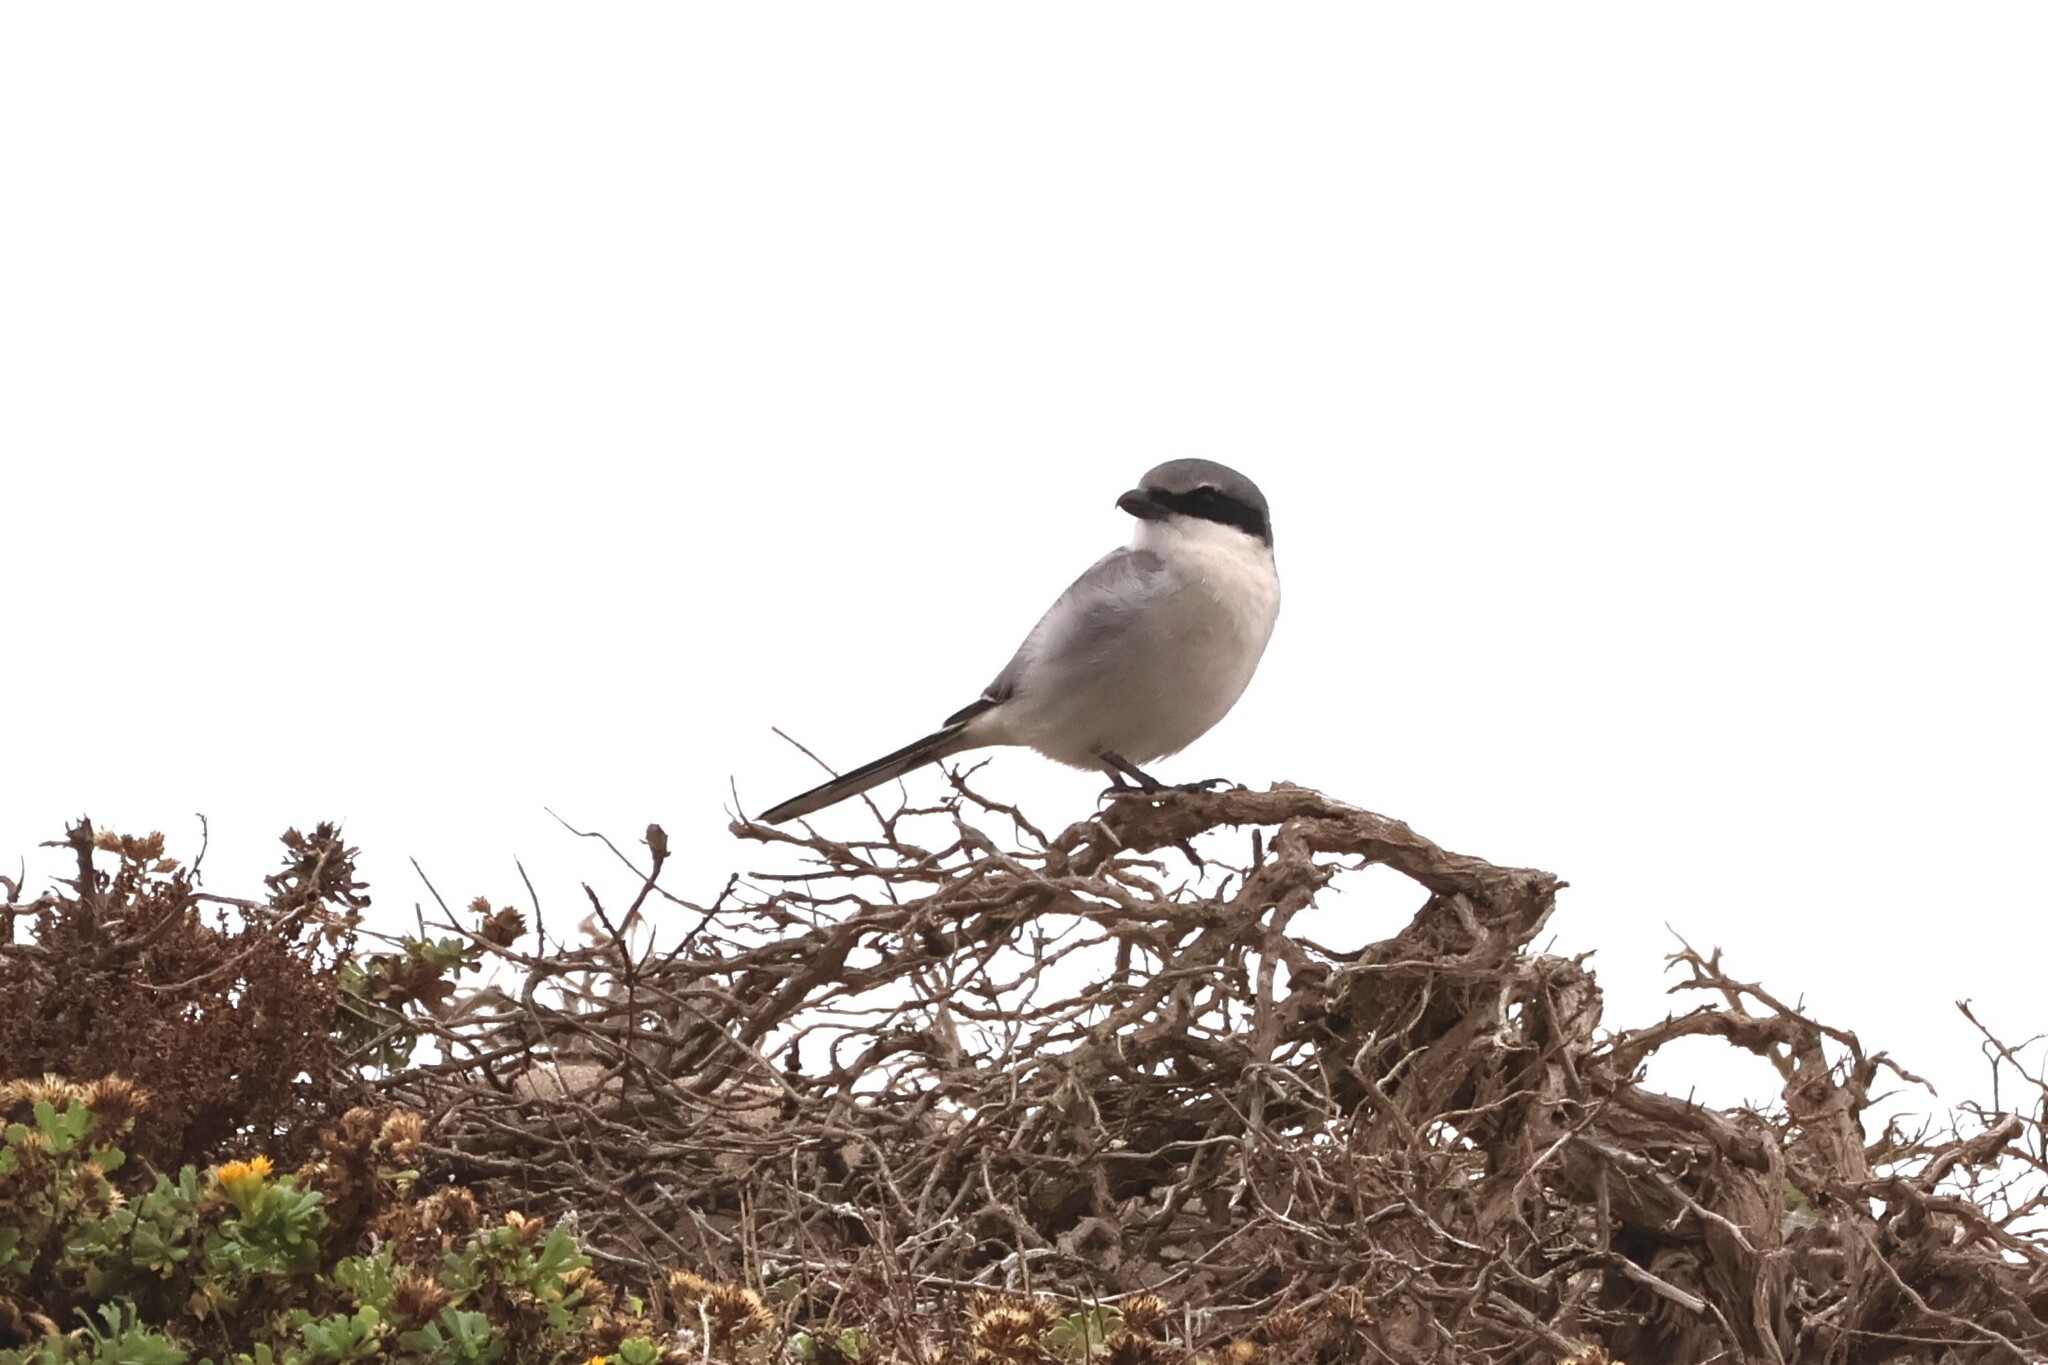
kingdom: Animalia
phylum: Chordata
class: Aves
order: Passeriformes
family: Laniidae
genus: Lanius
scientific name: Lanius ludovicianus
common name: Loggerhead shrike
